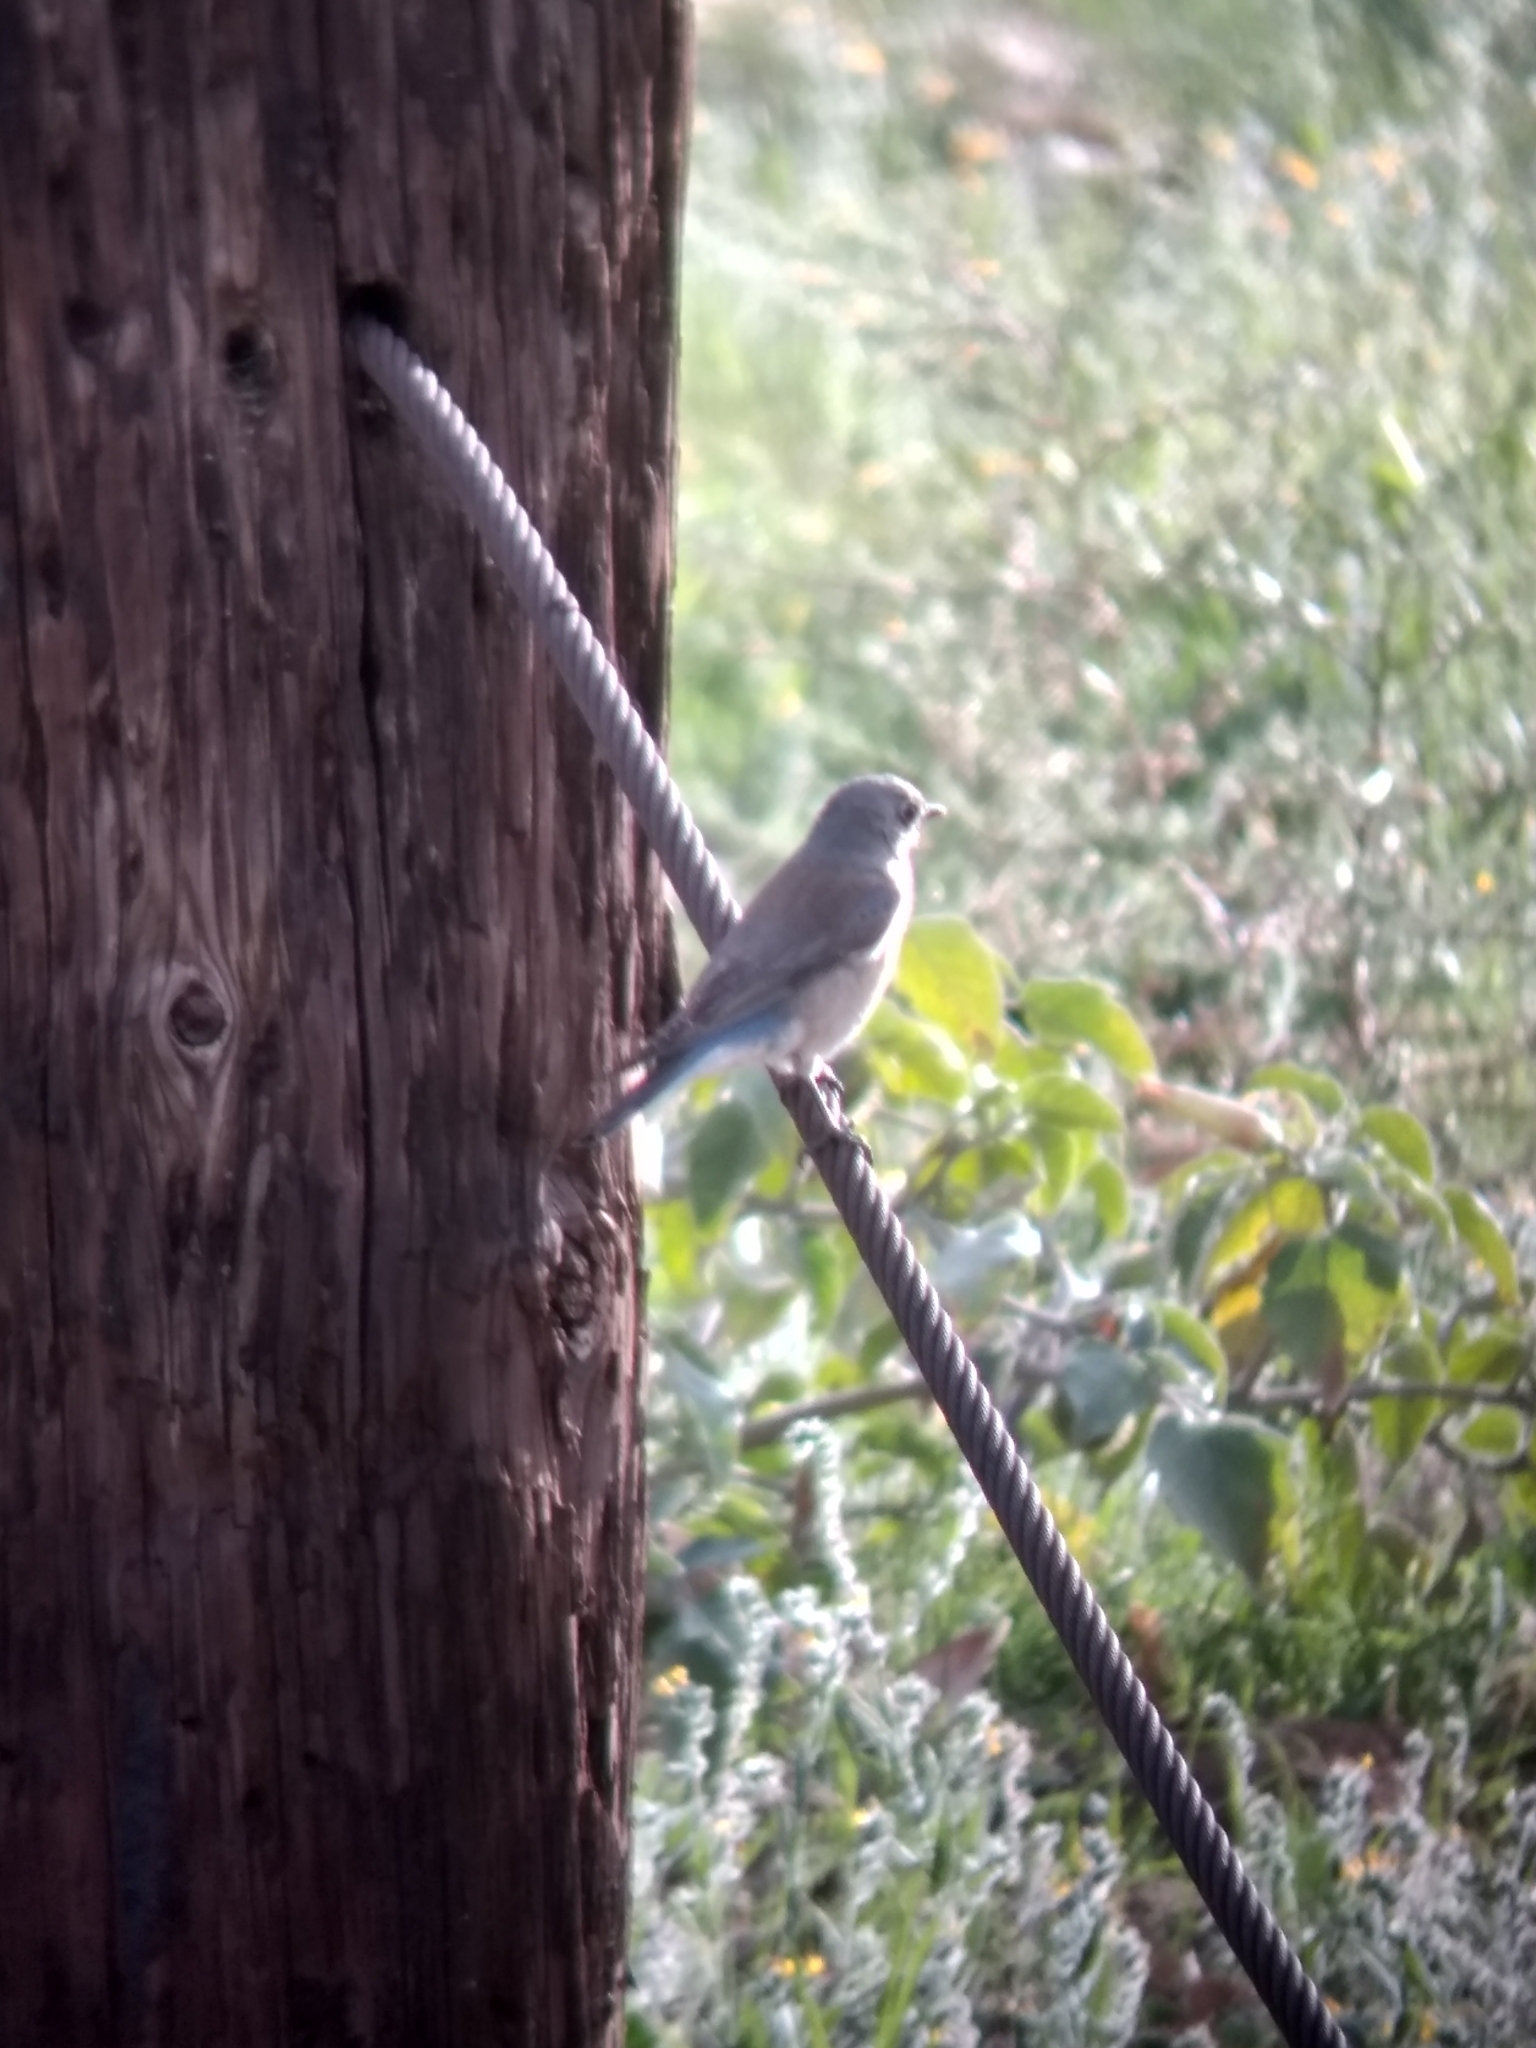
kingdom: Animalia
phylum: Chordata
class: Aves
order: Passeriformes
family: Turdidae
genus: Sialia
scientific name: Sialia mexicana
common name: Western bluebird
